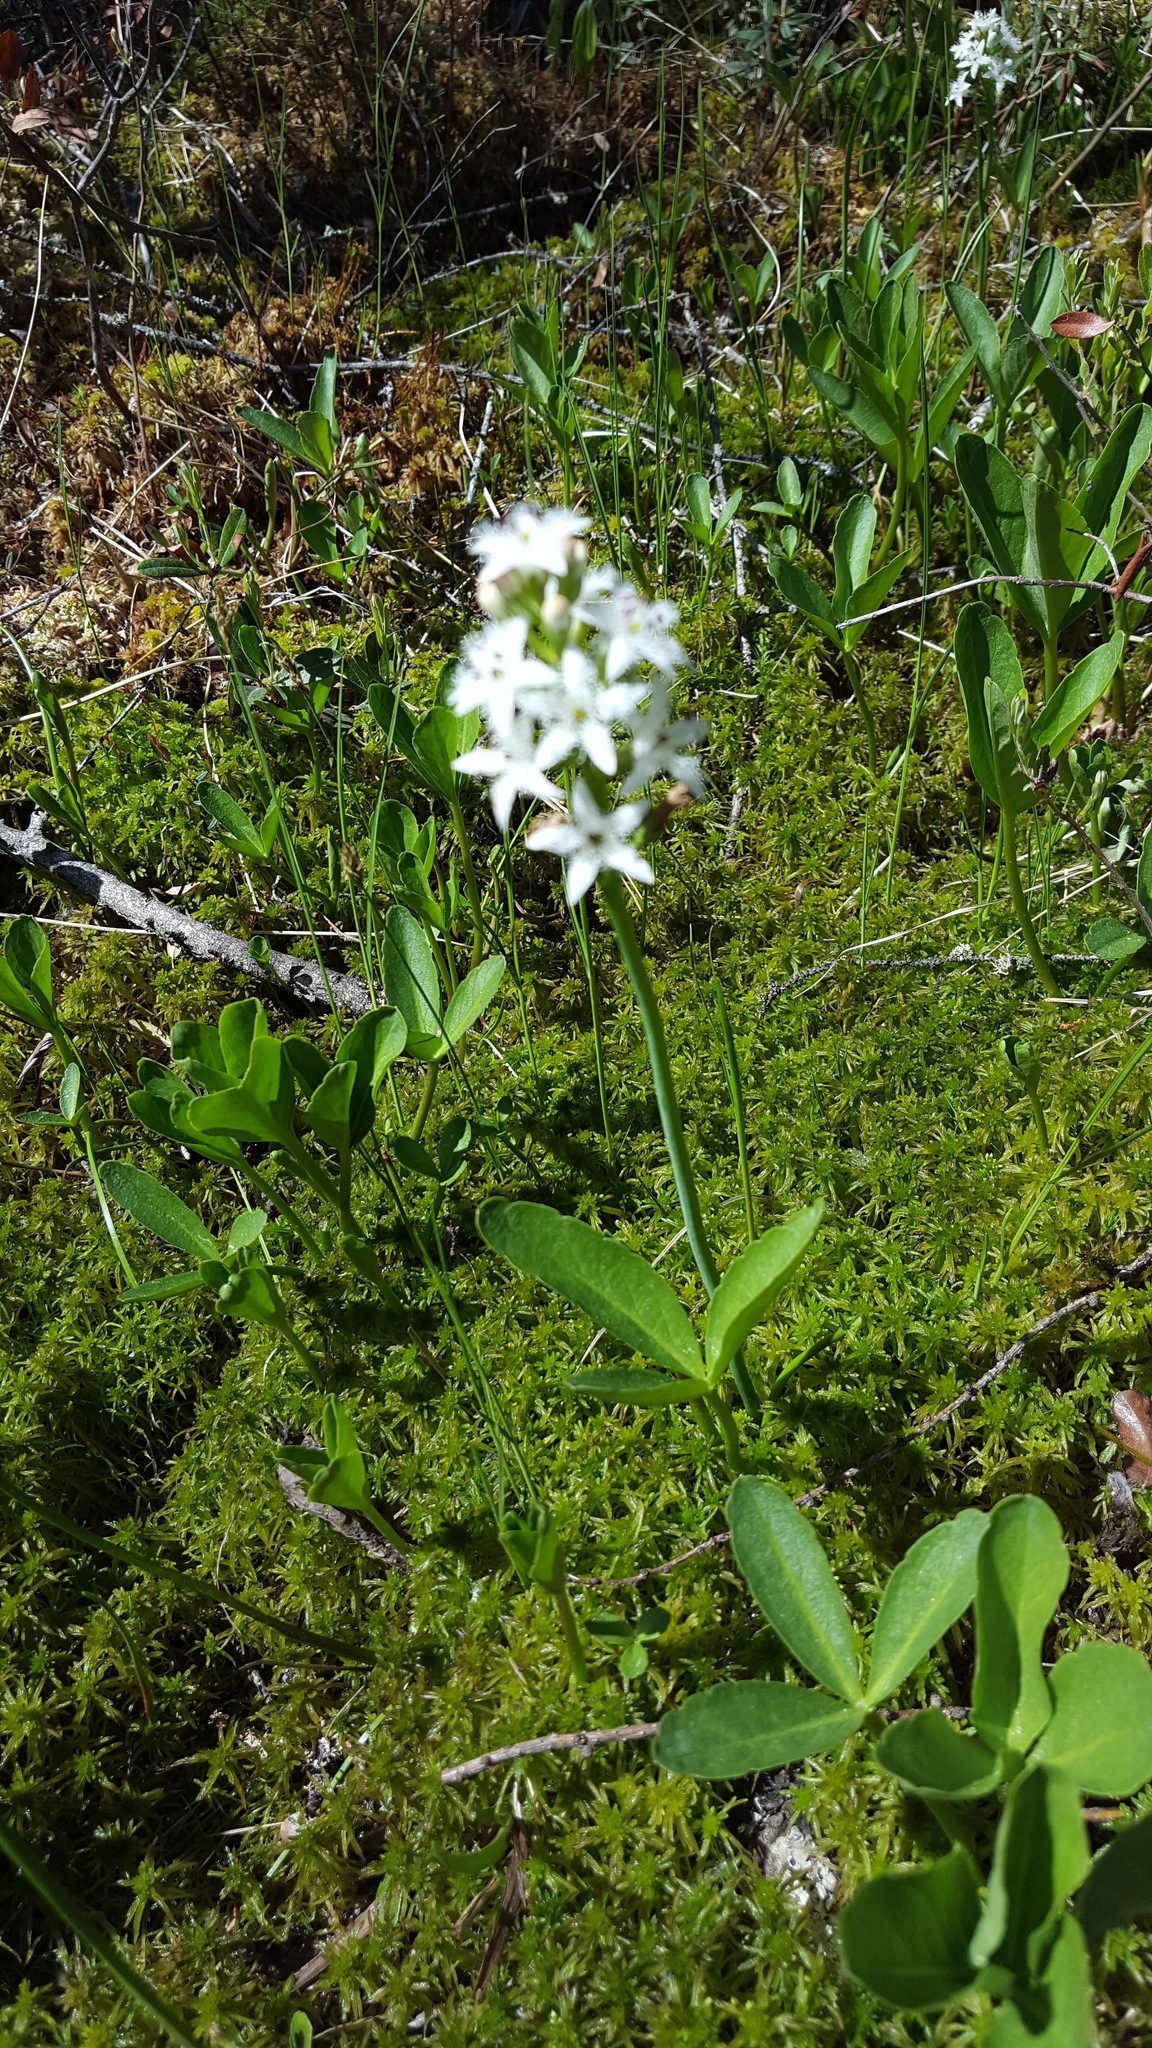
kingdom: Plantae
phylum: Tracheophyta
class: Magnoliopsida
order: Asterales
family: Menyanthaceae
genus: Menyanthes
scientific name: Menyanthes trifoliata
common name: Bogbean
